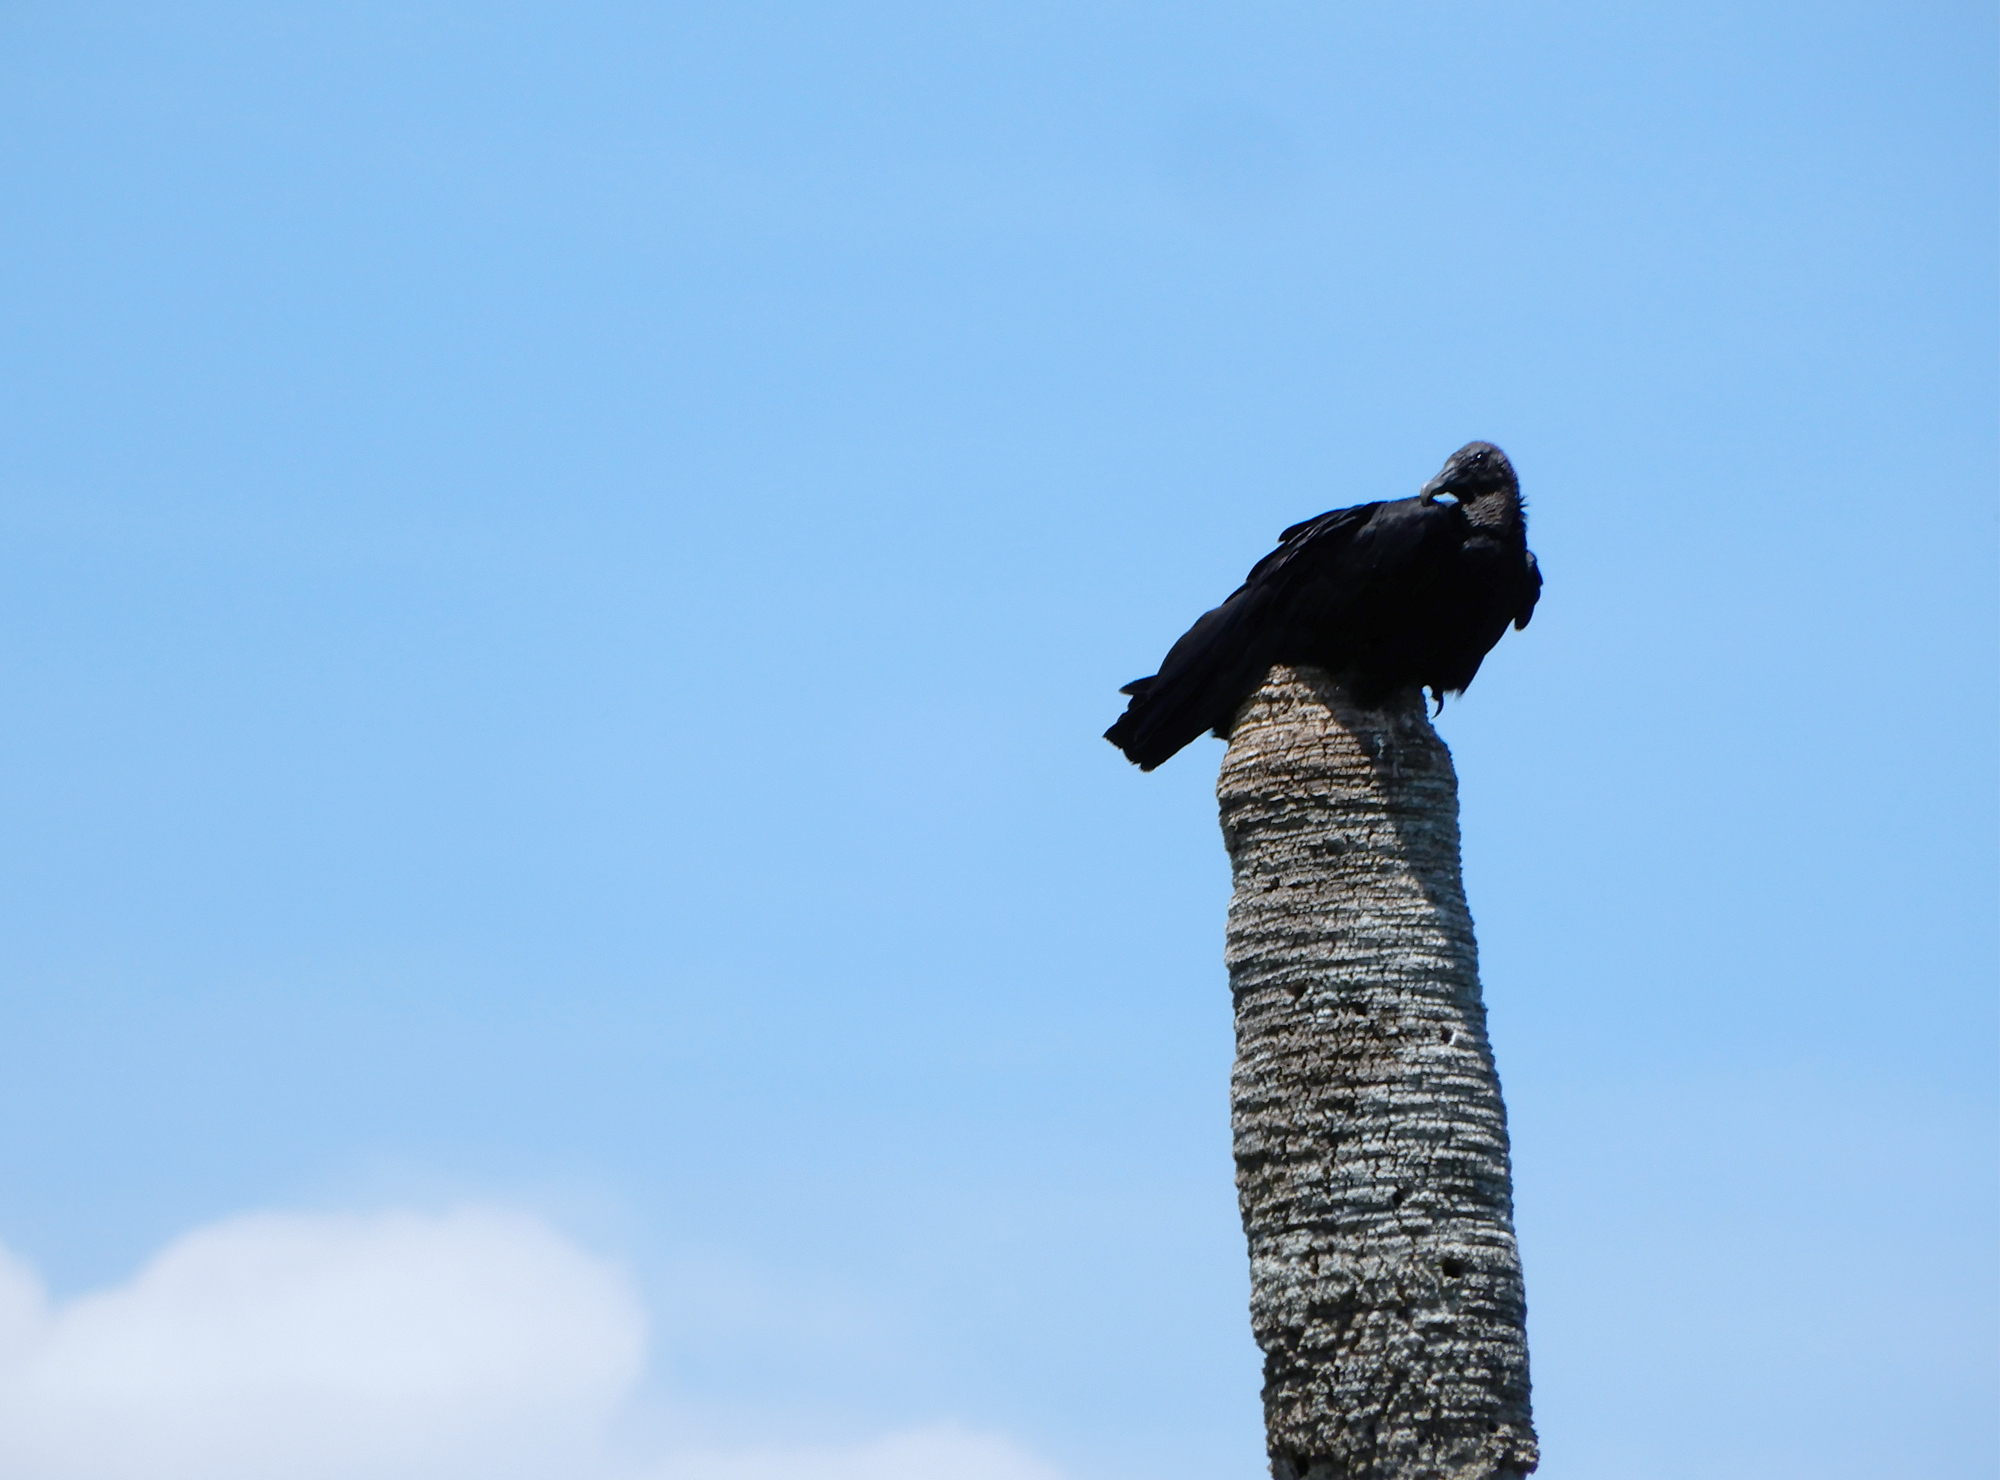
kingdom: Animalia
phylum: Chordata
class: Aves
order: Accipitriformes
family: Cathartidae
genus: Coragyps
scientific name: Coragyps atratus
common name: Black vulture
